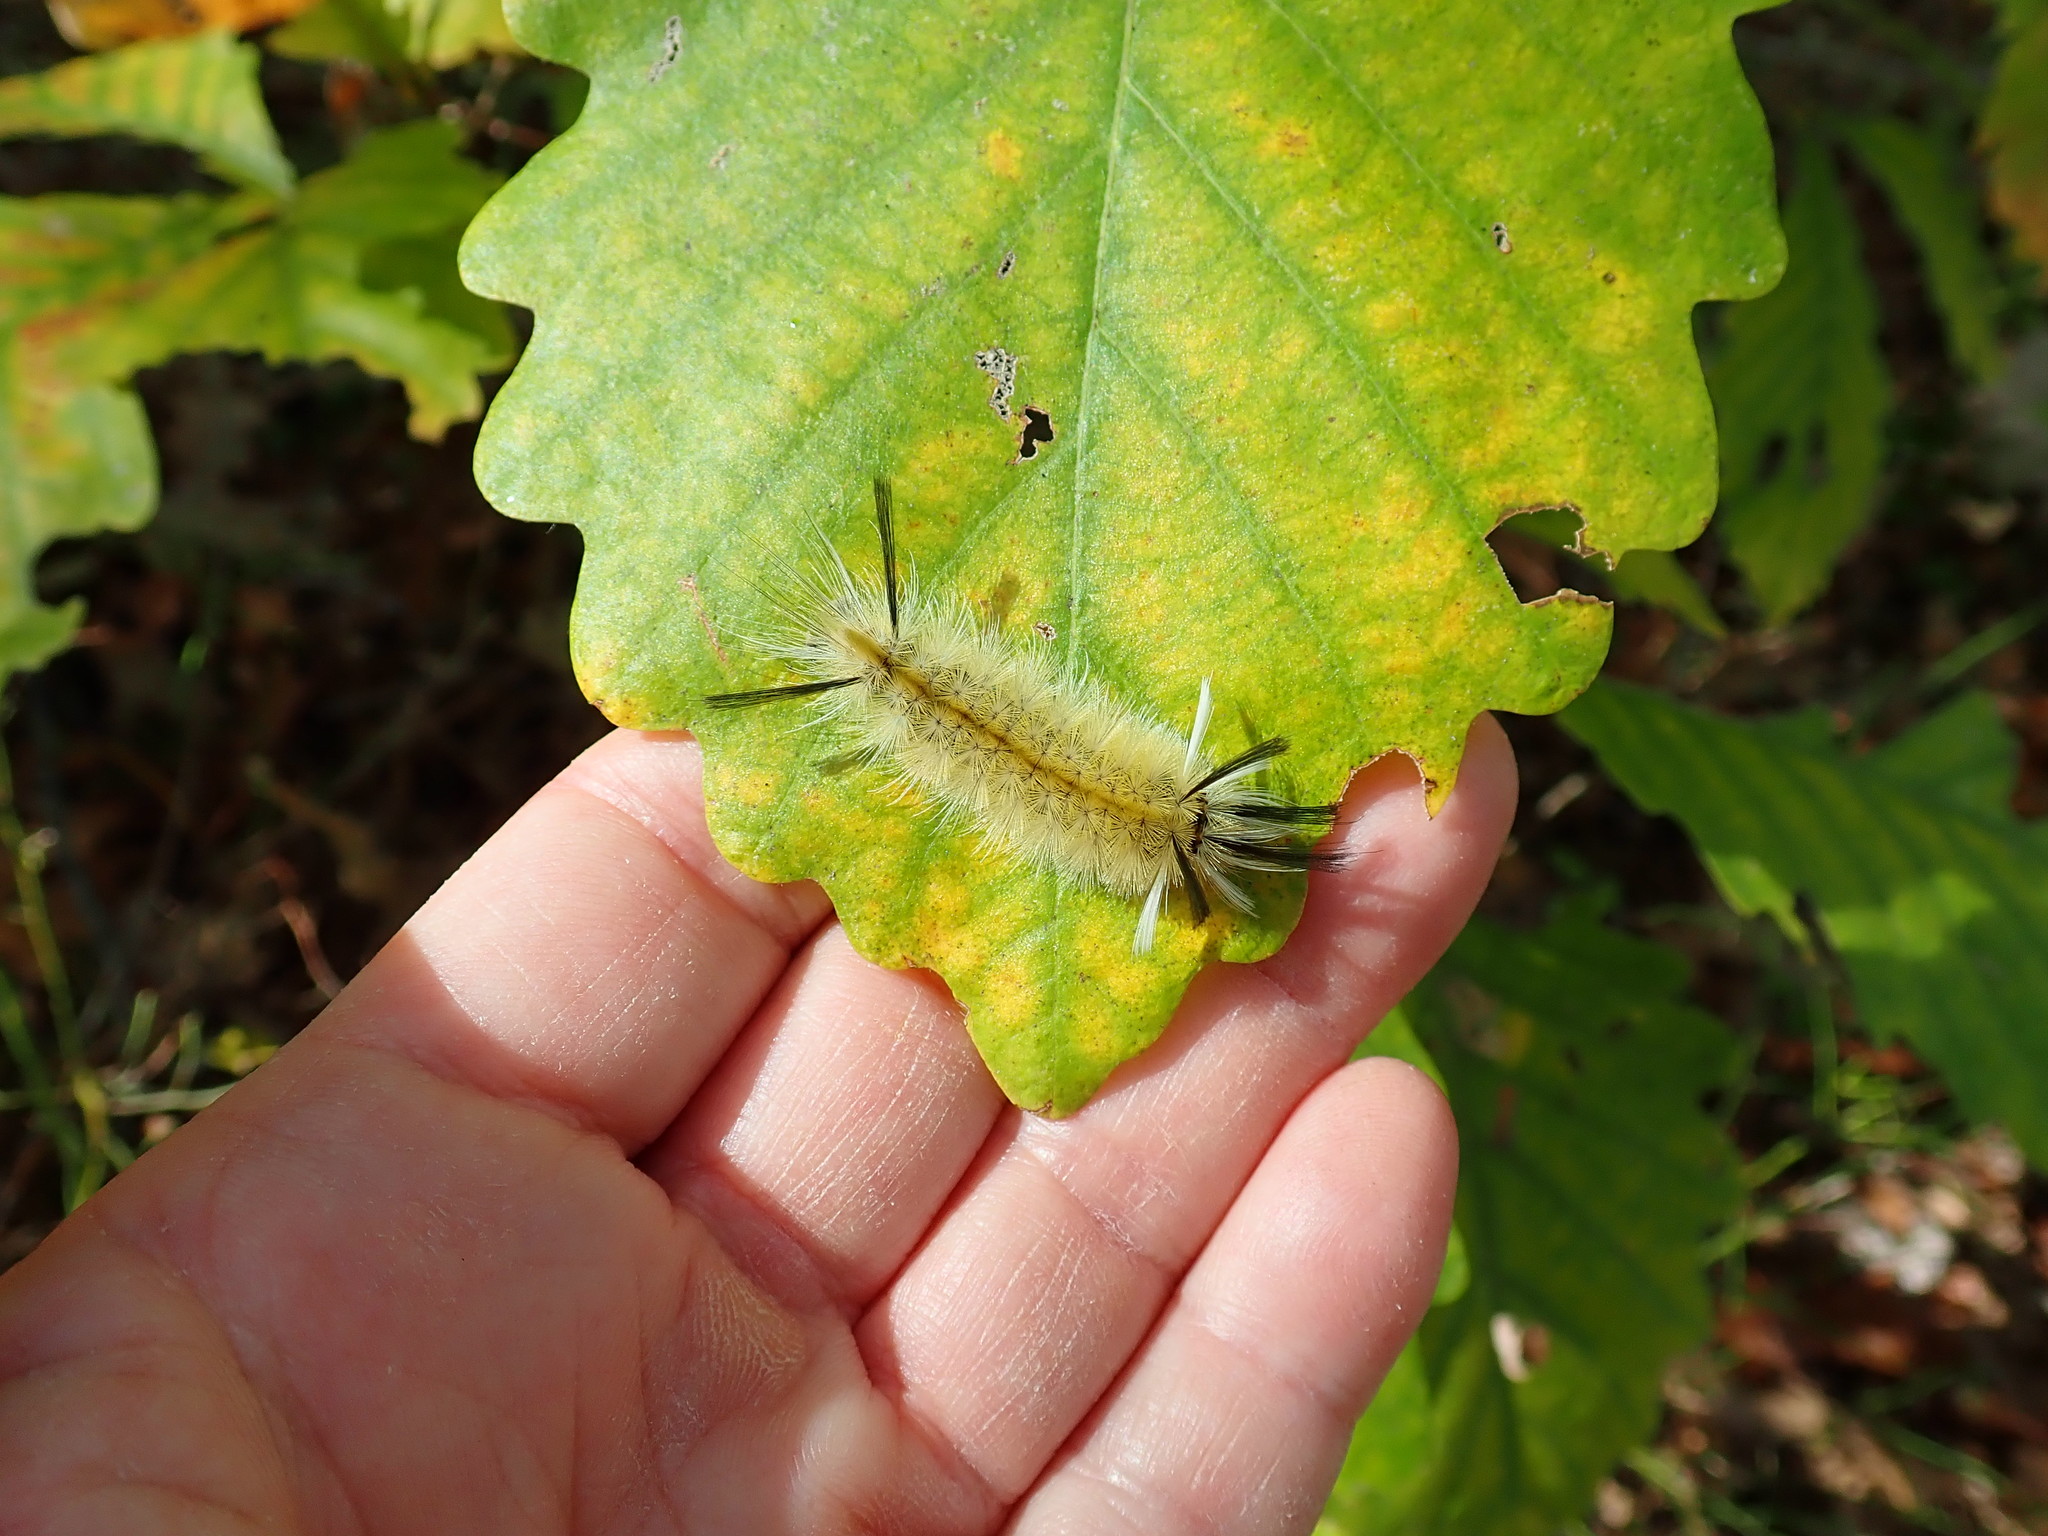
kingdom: Animalia
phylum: Arthropoda
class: Insecta
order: Lepidoptera
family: Erebidae
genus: Halysidota
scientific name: Halysidota tessellaris
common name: Banded tussock moth
